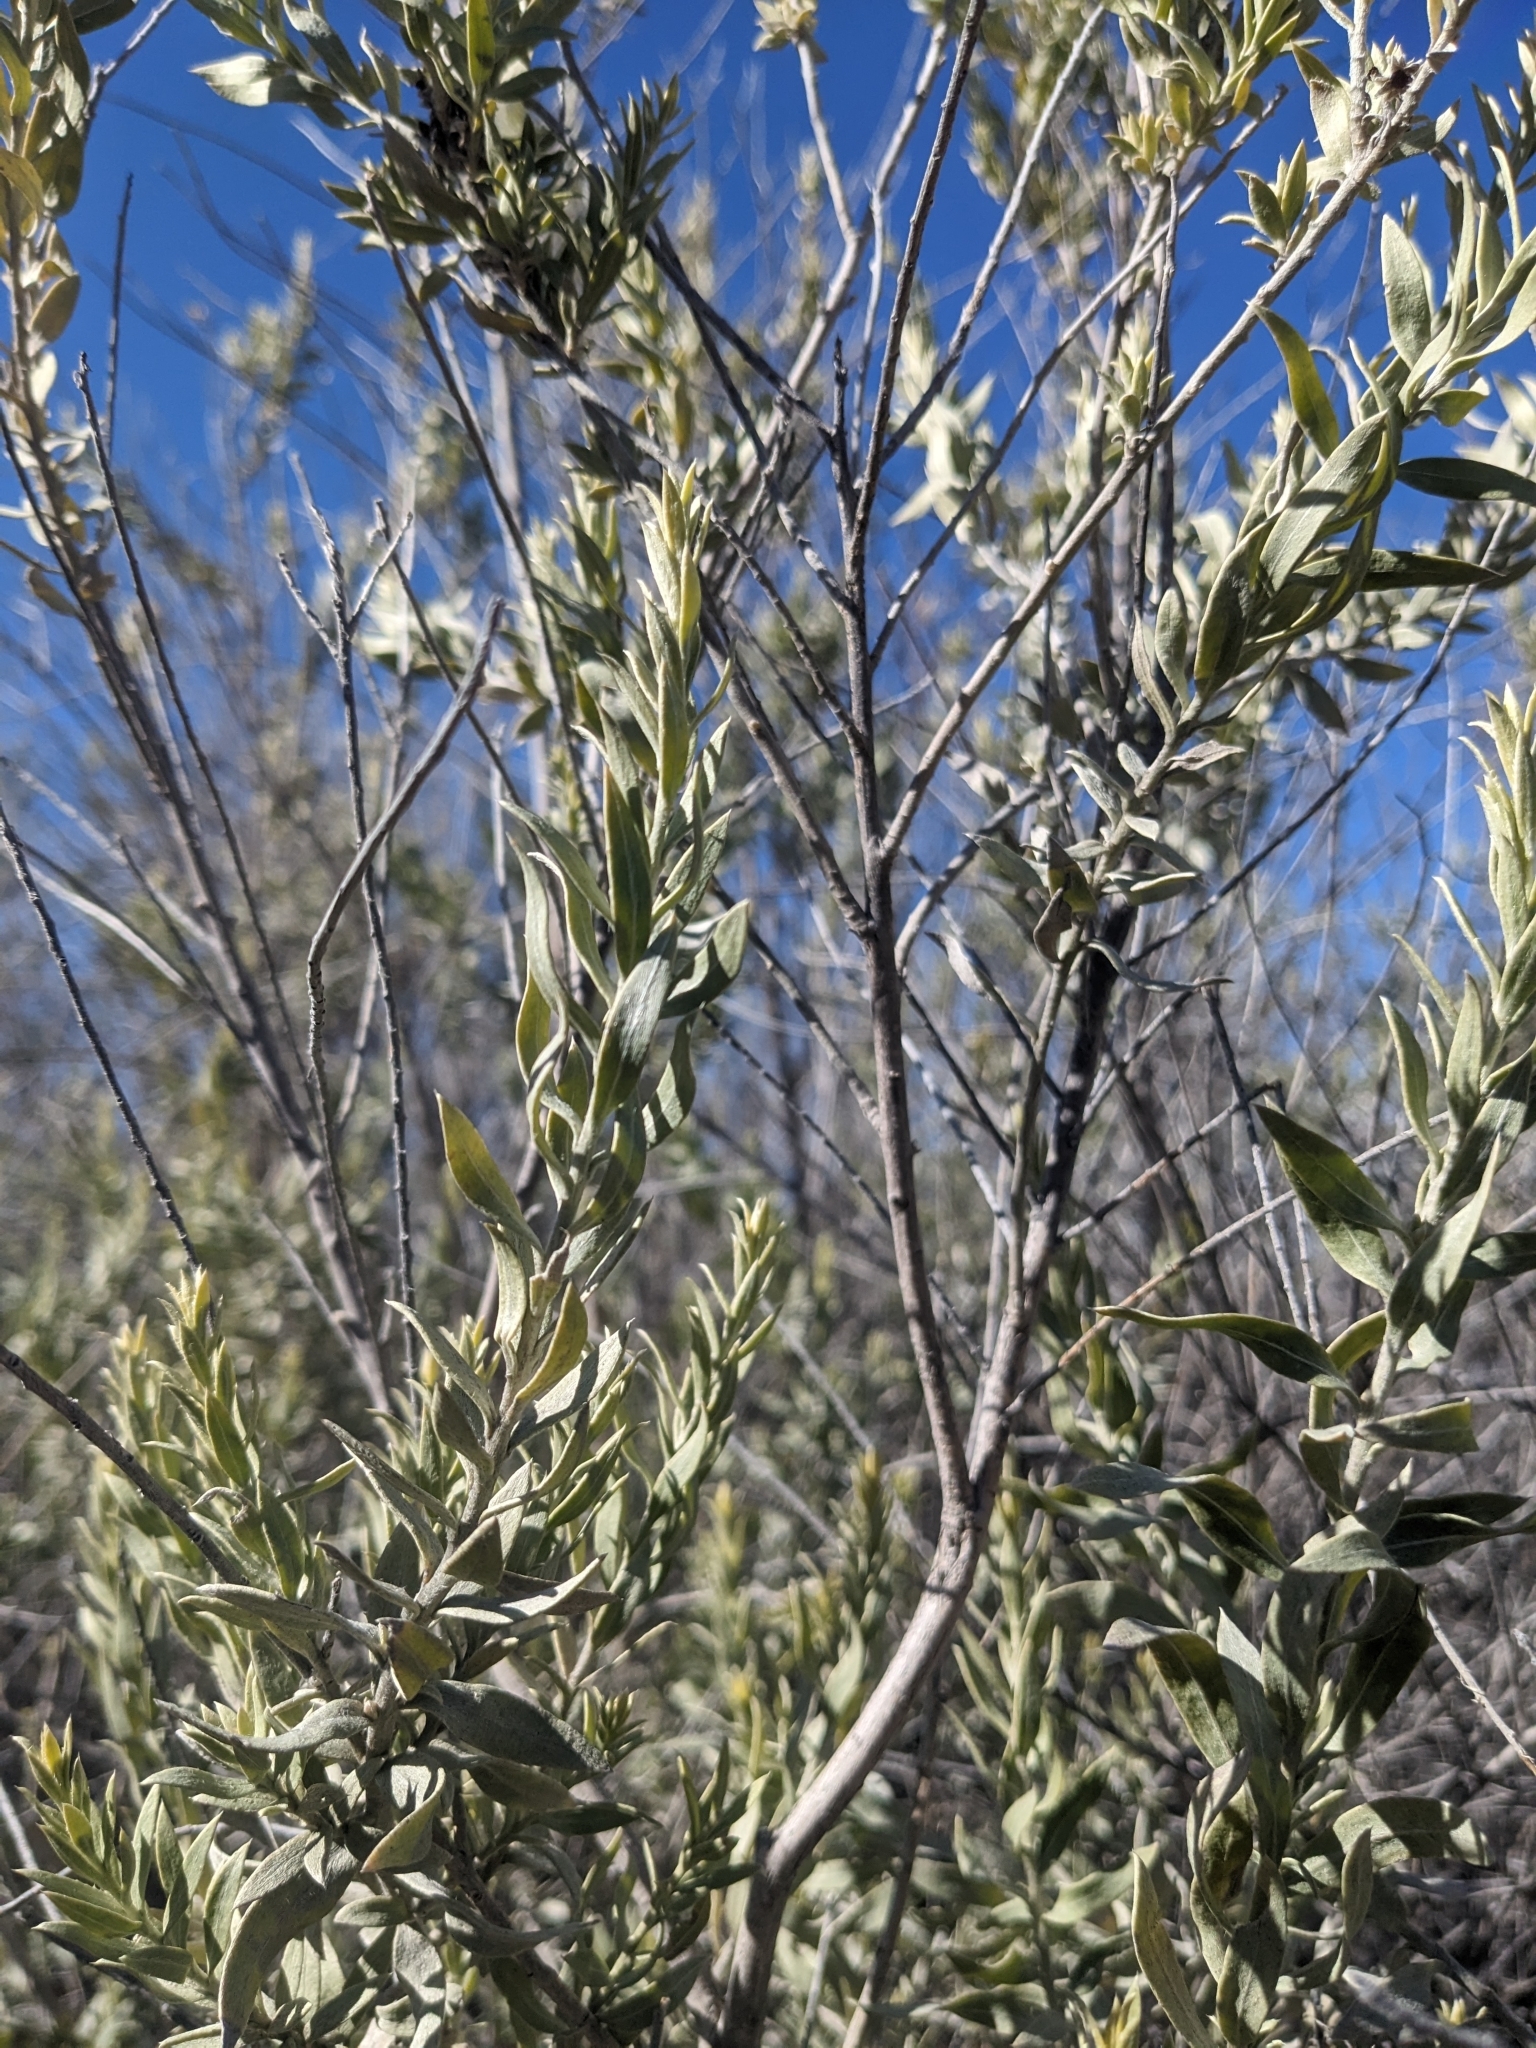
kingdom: Plantae
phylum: Tracheophyta
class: Magnoliopsida
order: Asterales
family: Asteraceae
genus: Pluchea
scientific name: Pluchea sericea
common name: Arrow-weed
